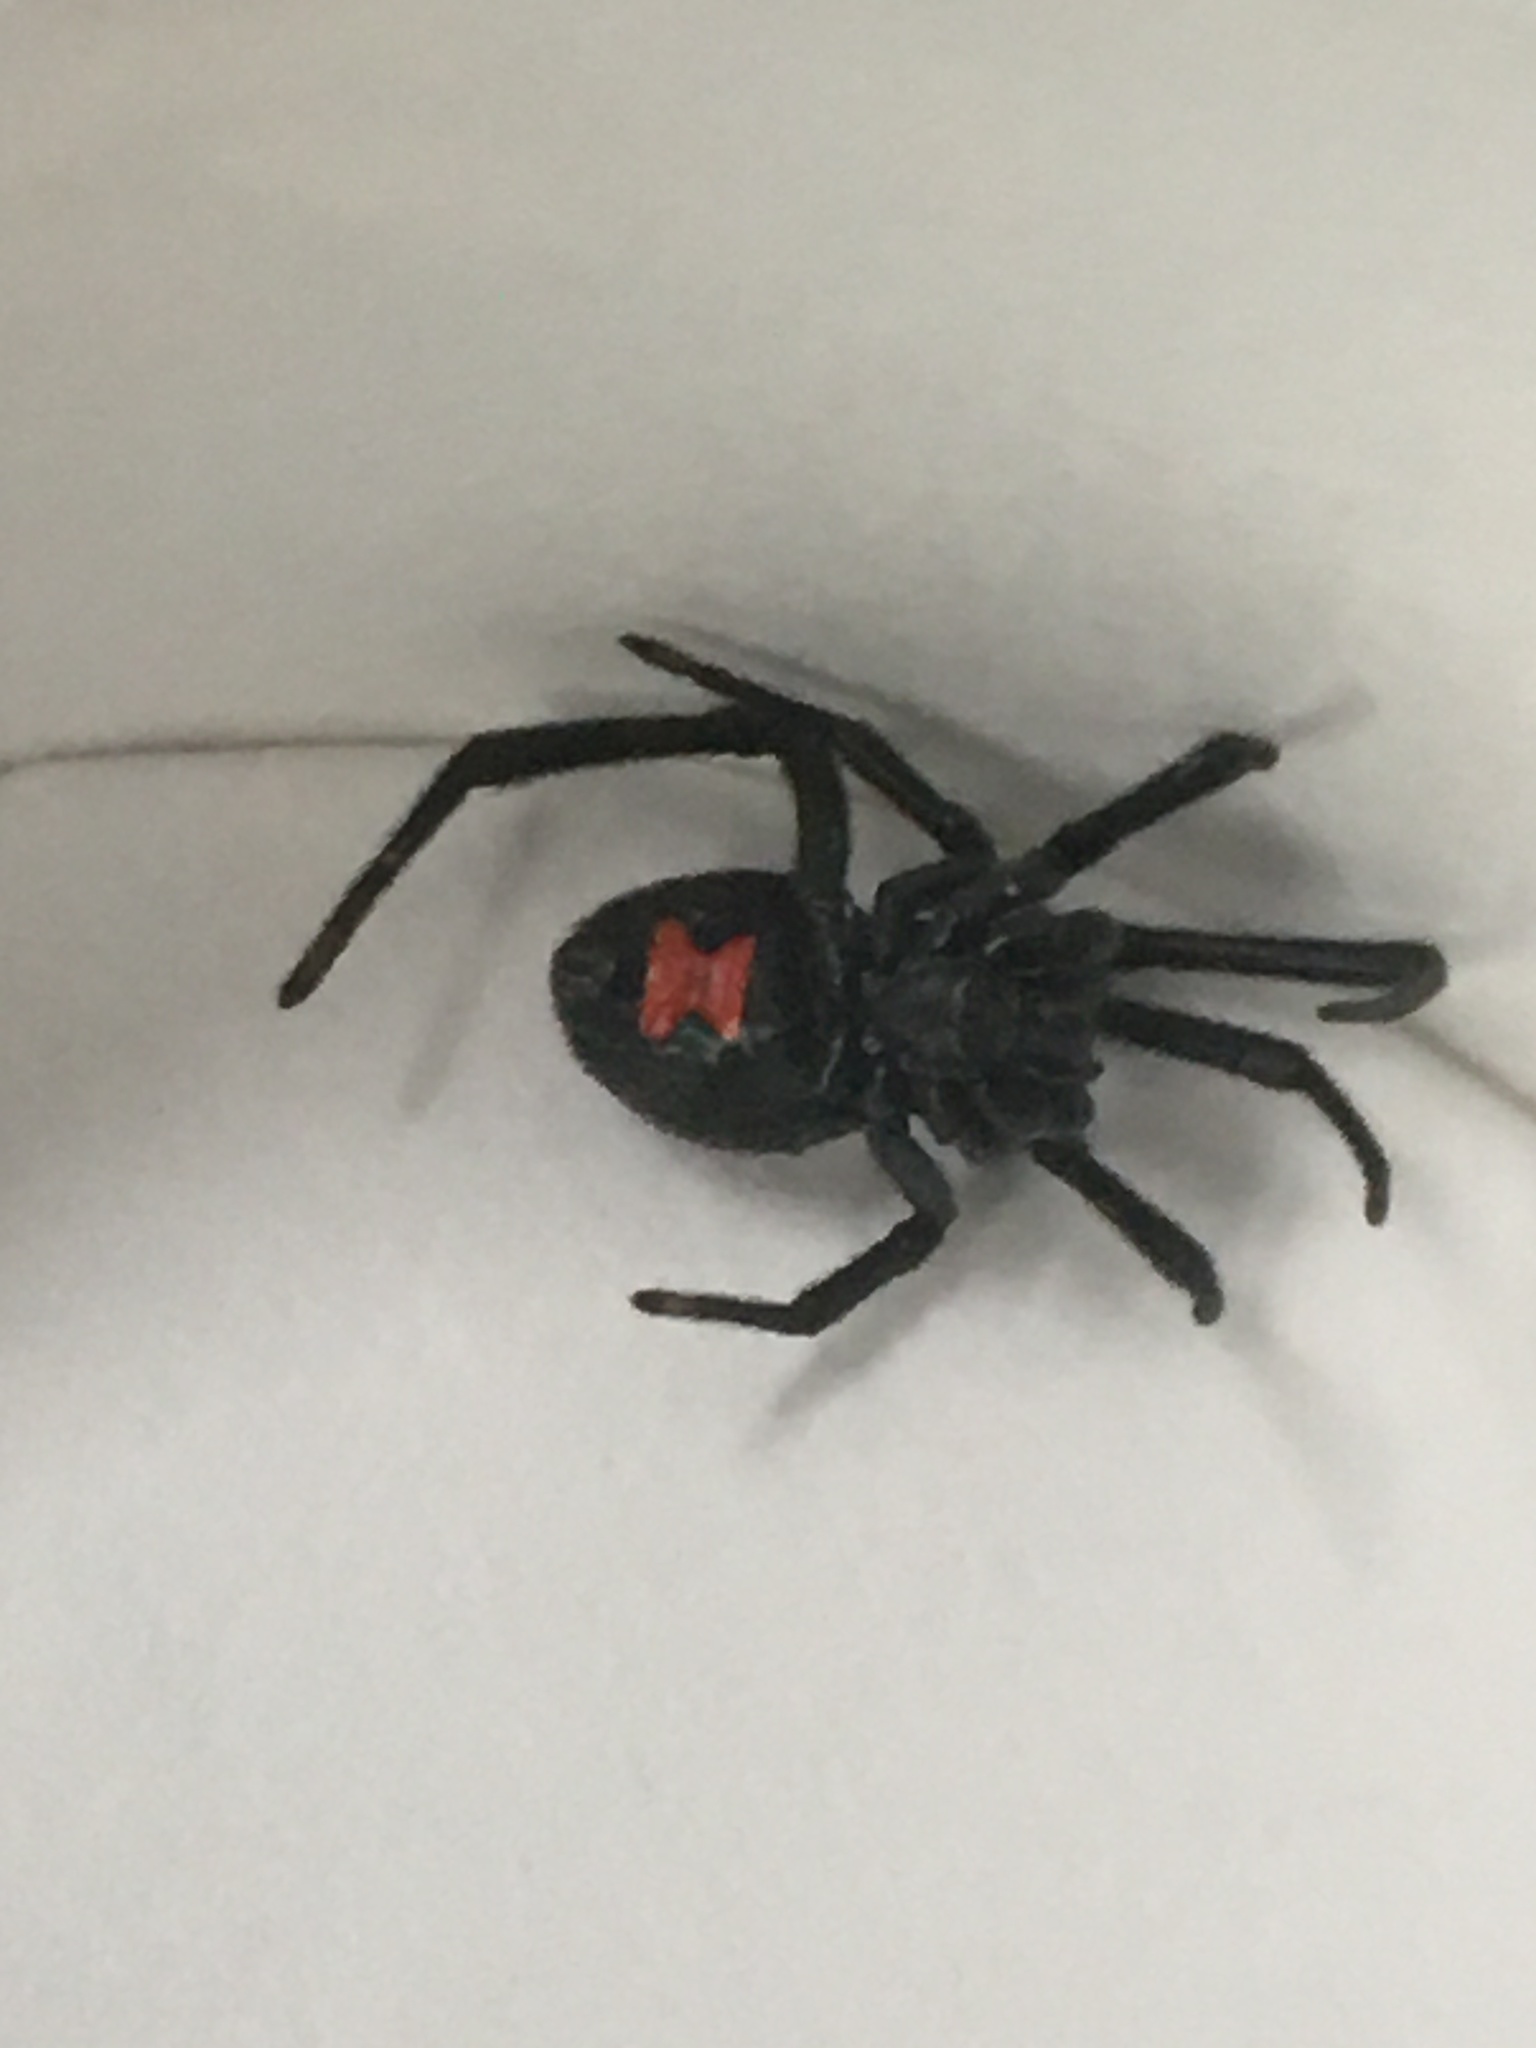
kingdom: Animalia
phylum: Arthropoda
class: Arachnida
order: Araneae
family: Theridiidae
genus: Latrodectus
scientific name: Latrodectus mactans
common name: Cobweb spiders
